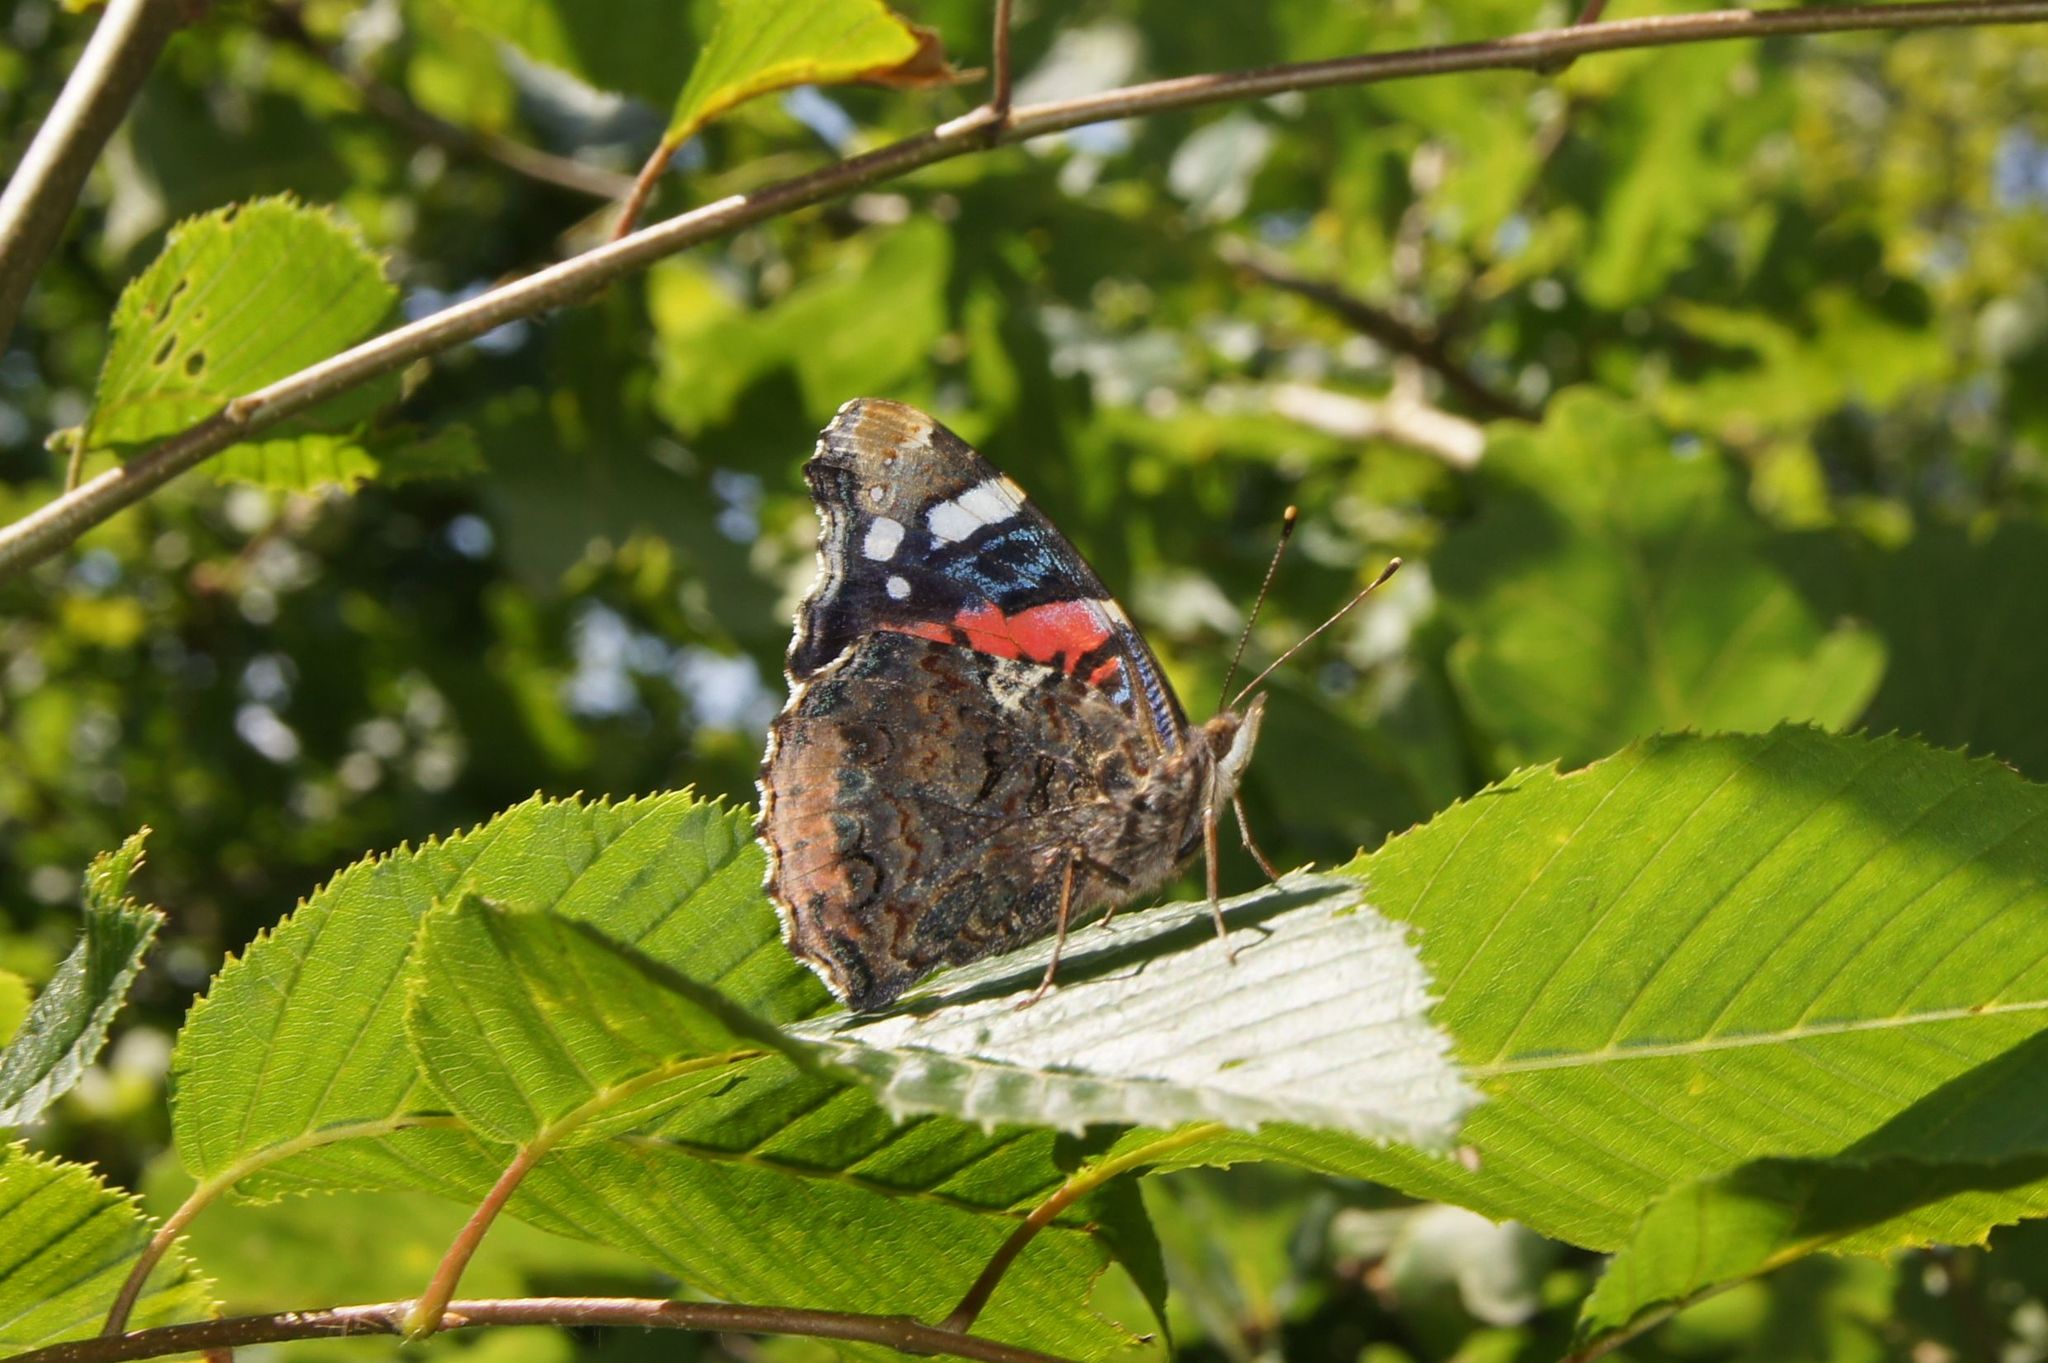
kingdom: Animalia
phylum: Arthropoda
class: Insecta
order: Lepidoptera
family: Nymphalidae
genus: Vanessa
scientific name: Vanessa atalanta
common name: Red admiral
